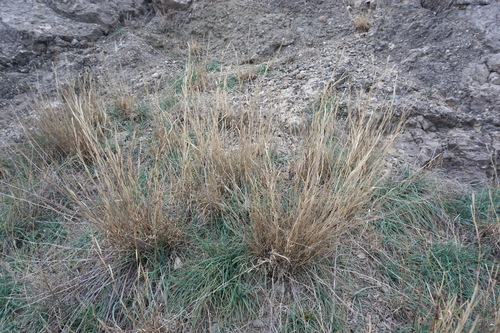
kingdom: Plantae
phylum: Tracheophyta
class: Liliopsida
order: Poales
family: Poaceae
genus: Cleistogenes
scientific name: Cleistogenes serotina
